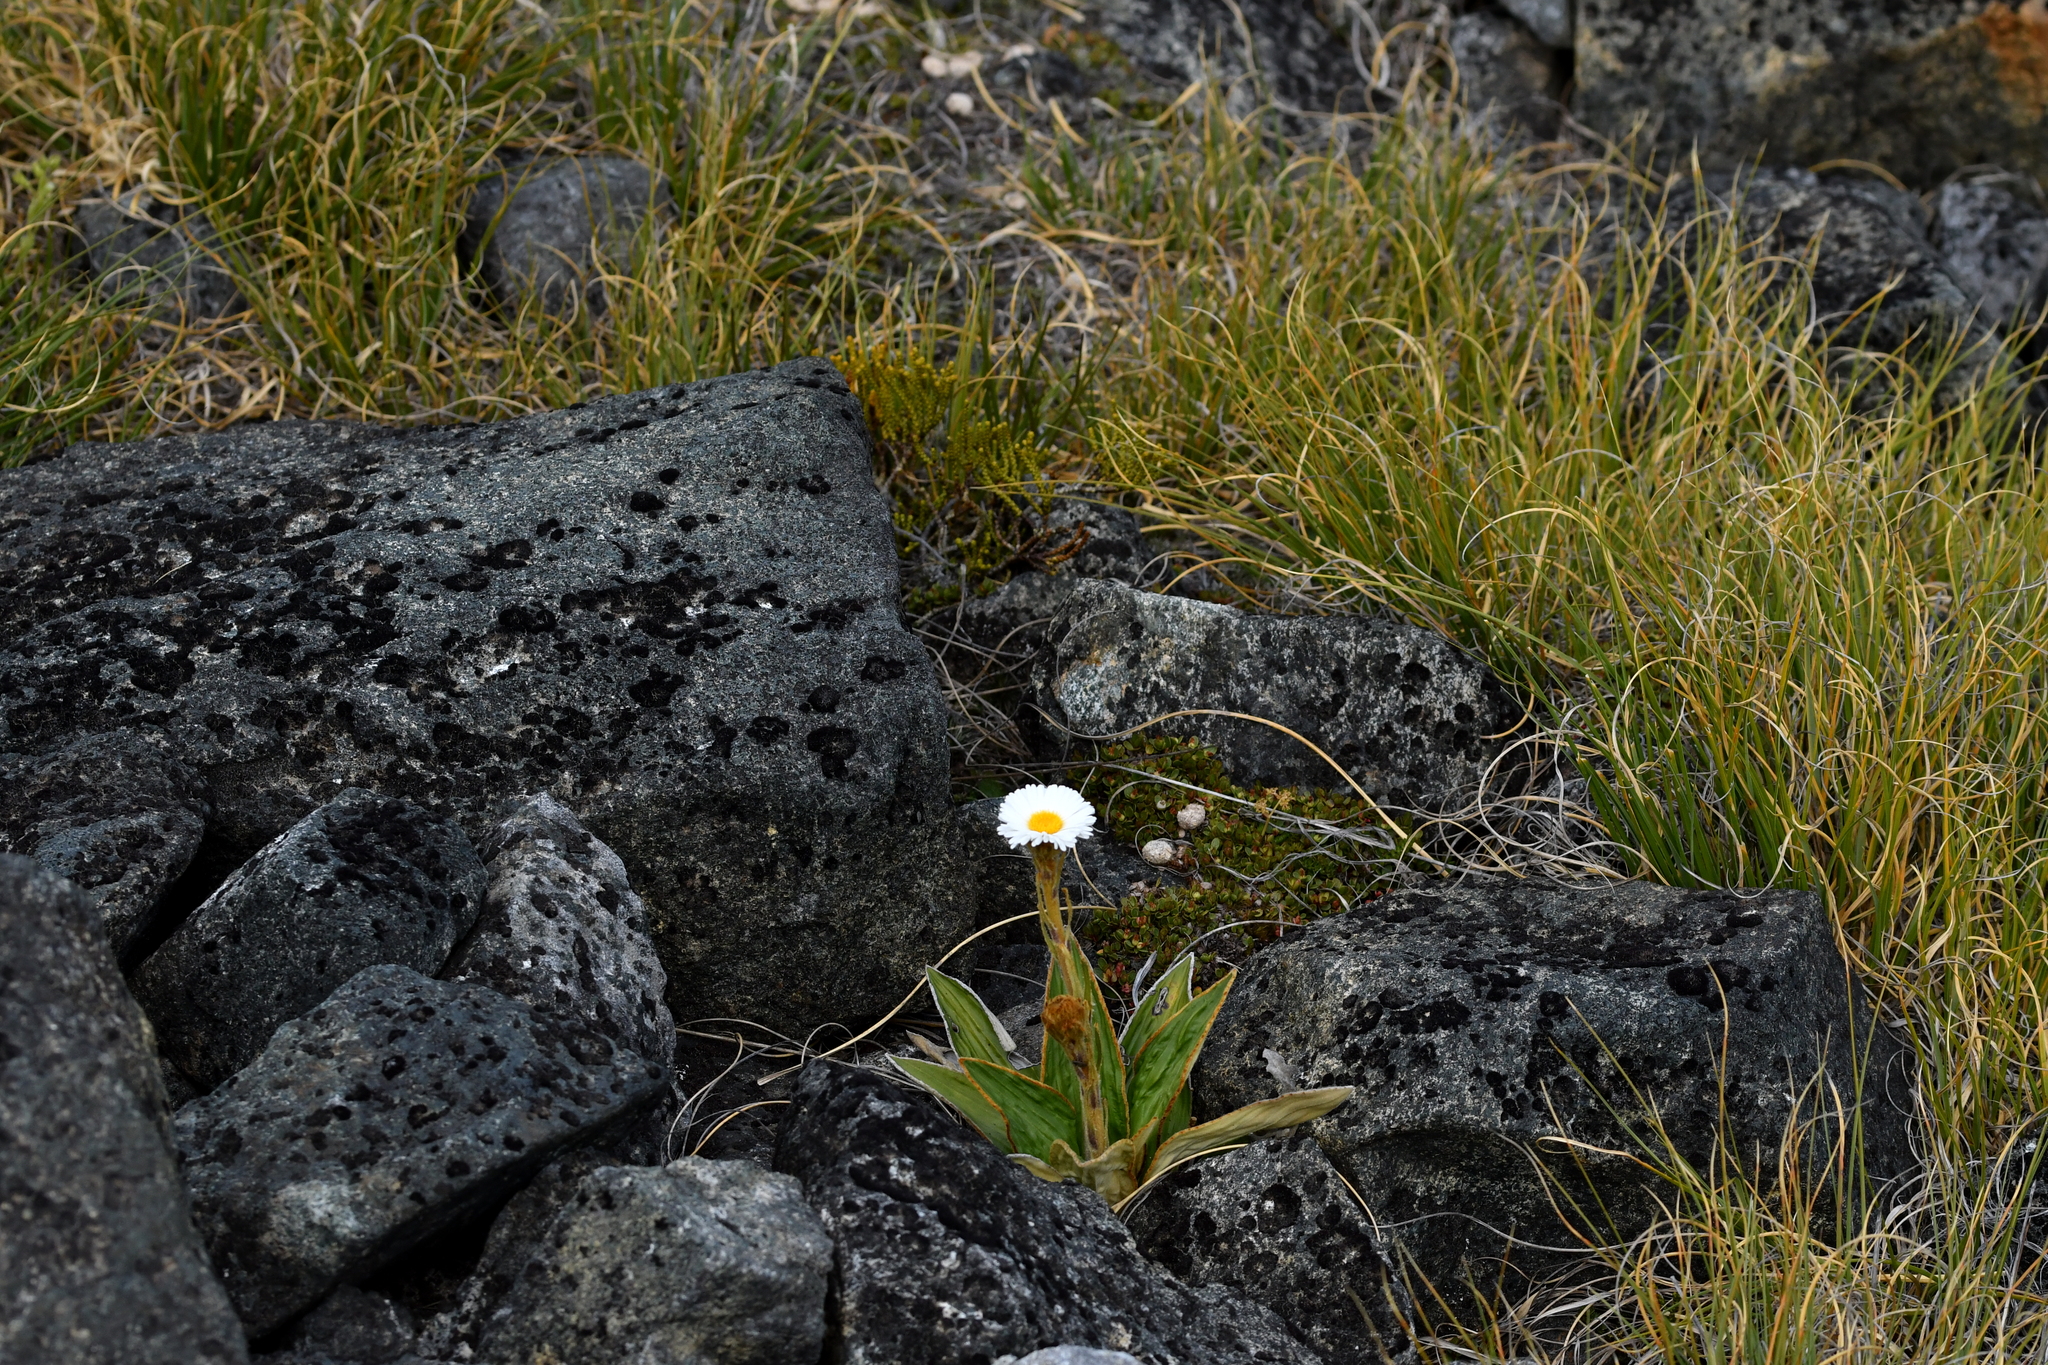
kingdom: Plantae
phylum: Tracheophyta
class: Magnoliopsida
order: Asterales
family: Asteraceae
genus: Celmisia
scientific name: Celmisia traversii
